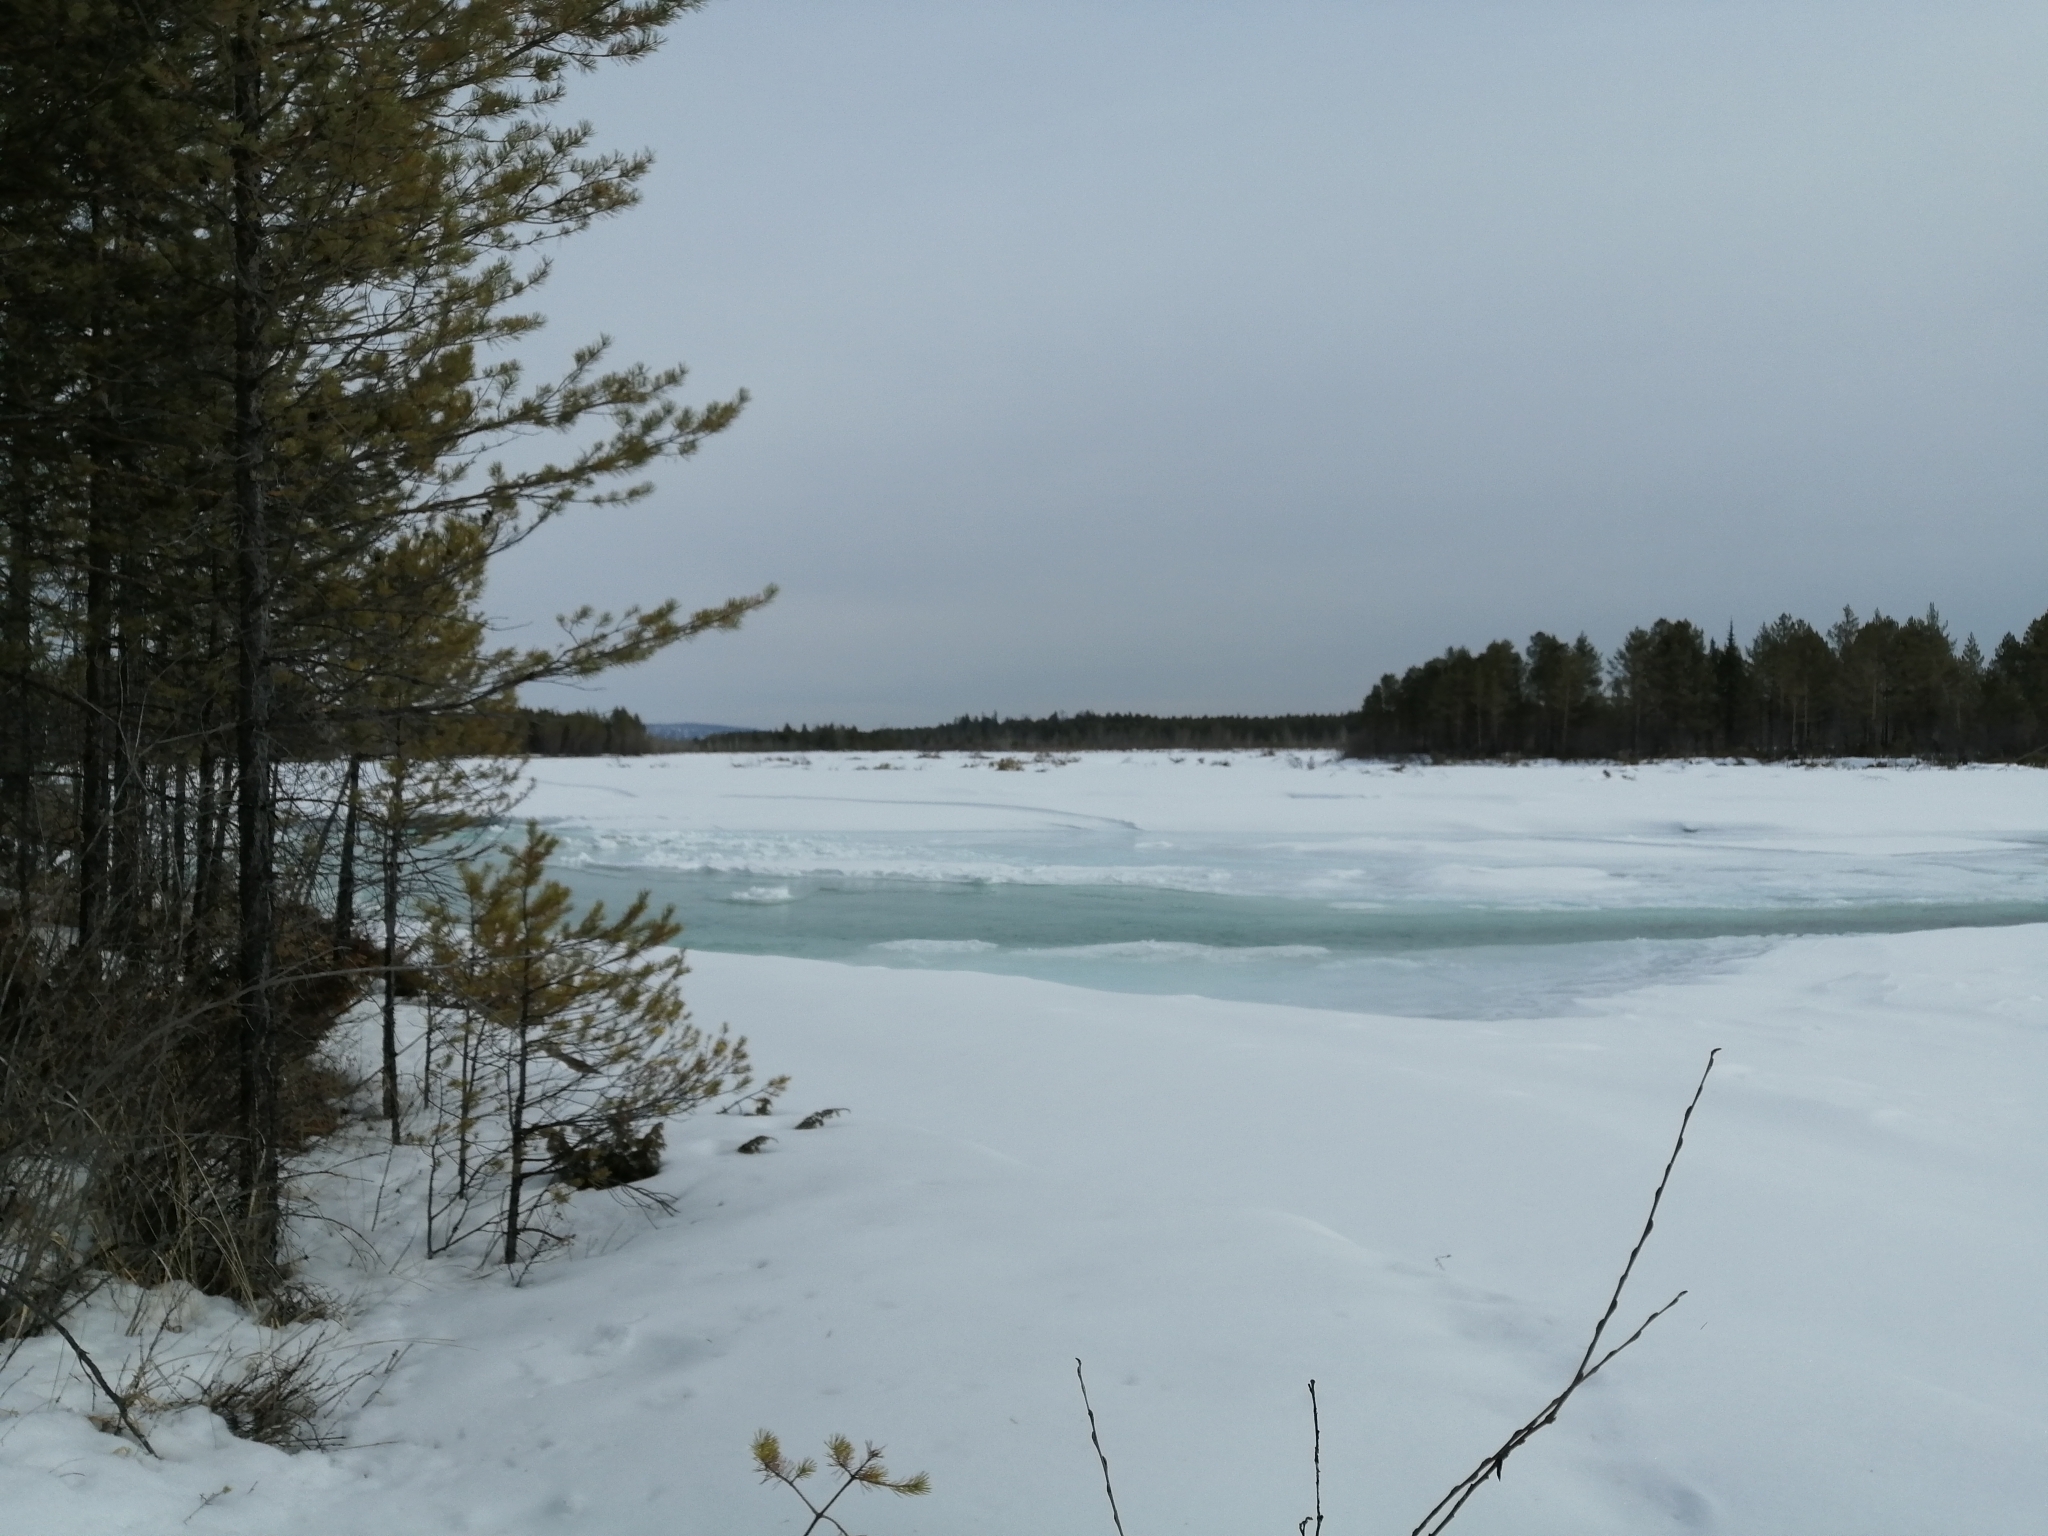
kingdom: Plantae
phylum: Tracheophyta
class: Pinopsida
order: Pinales
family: Pinaceae
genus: Pinus
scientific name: Pinus sylvestris
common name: Scots pine
